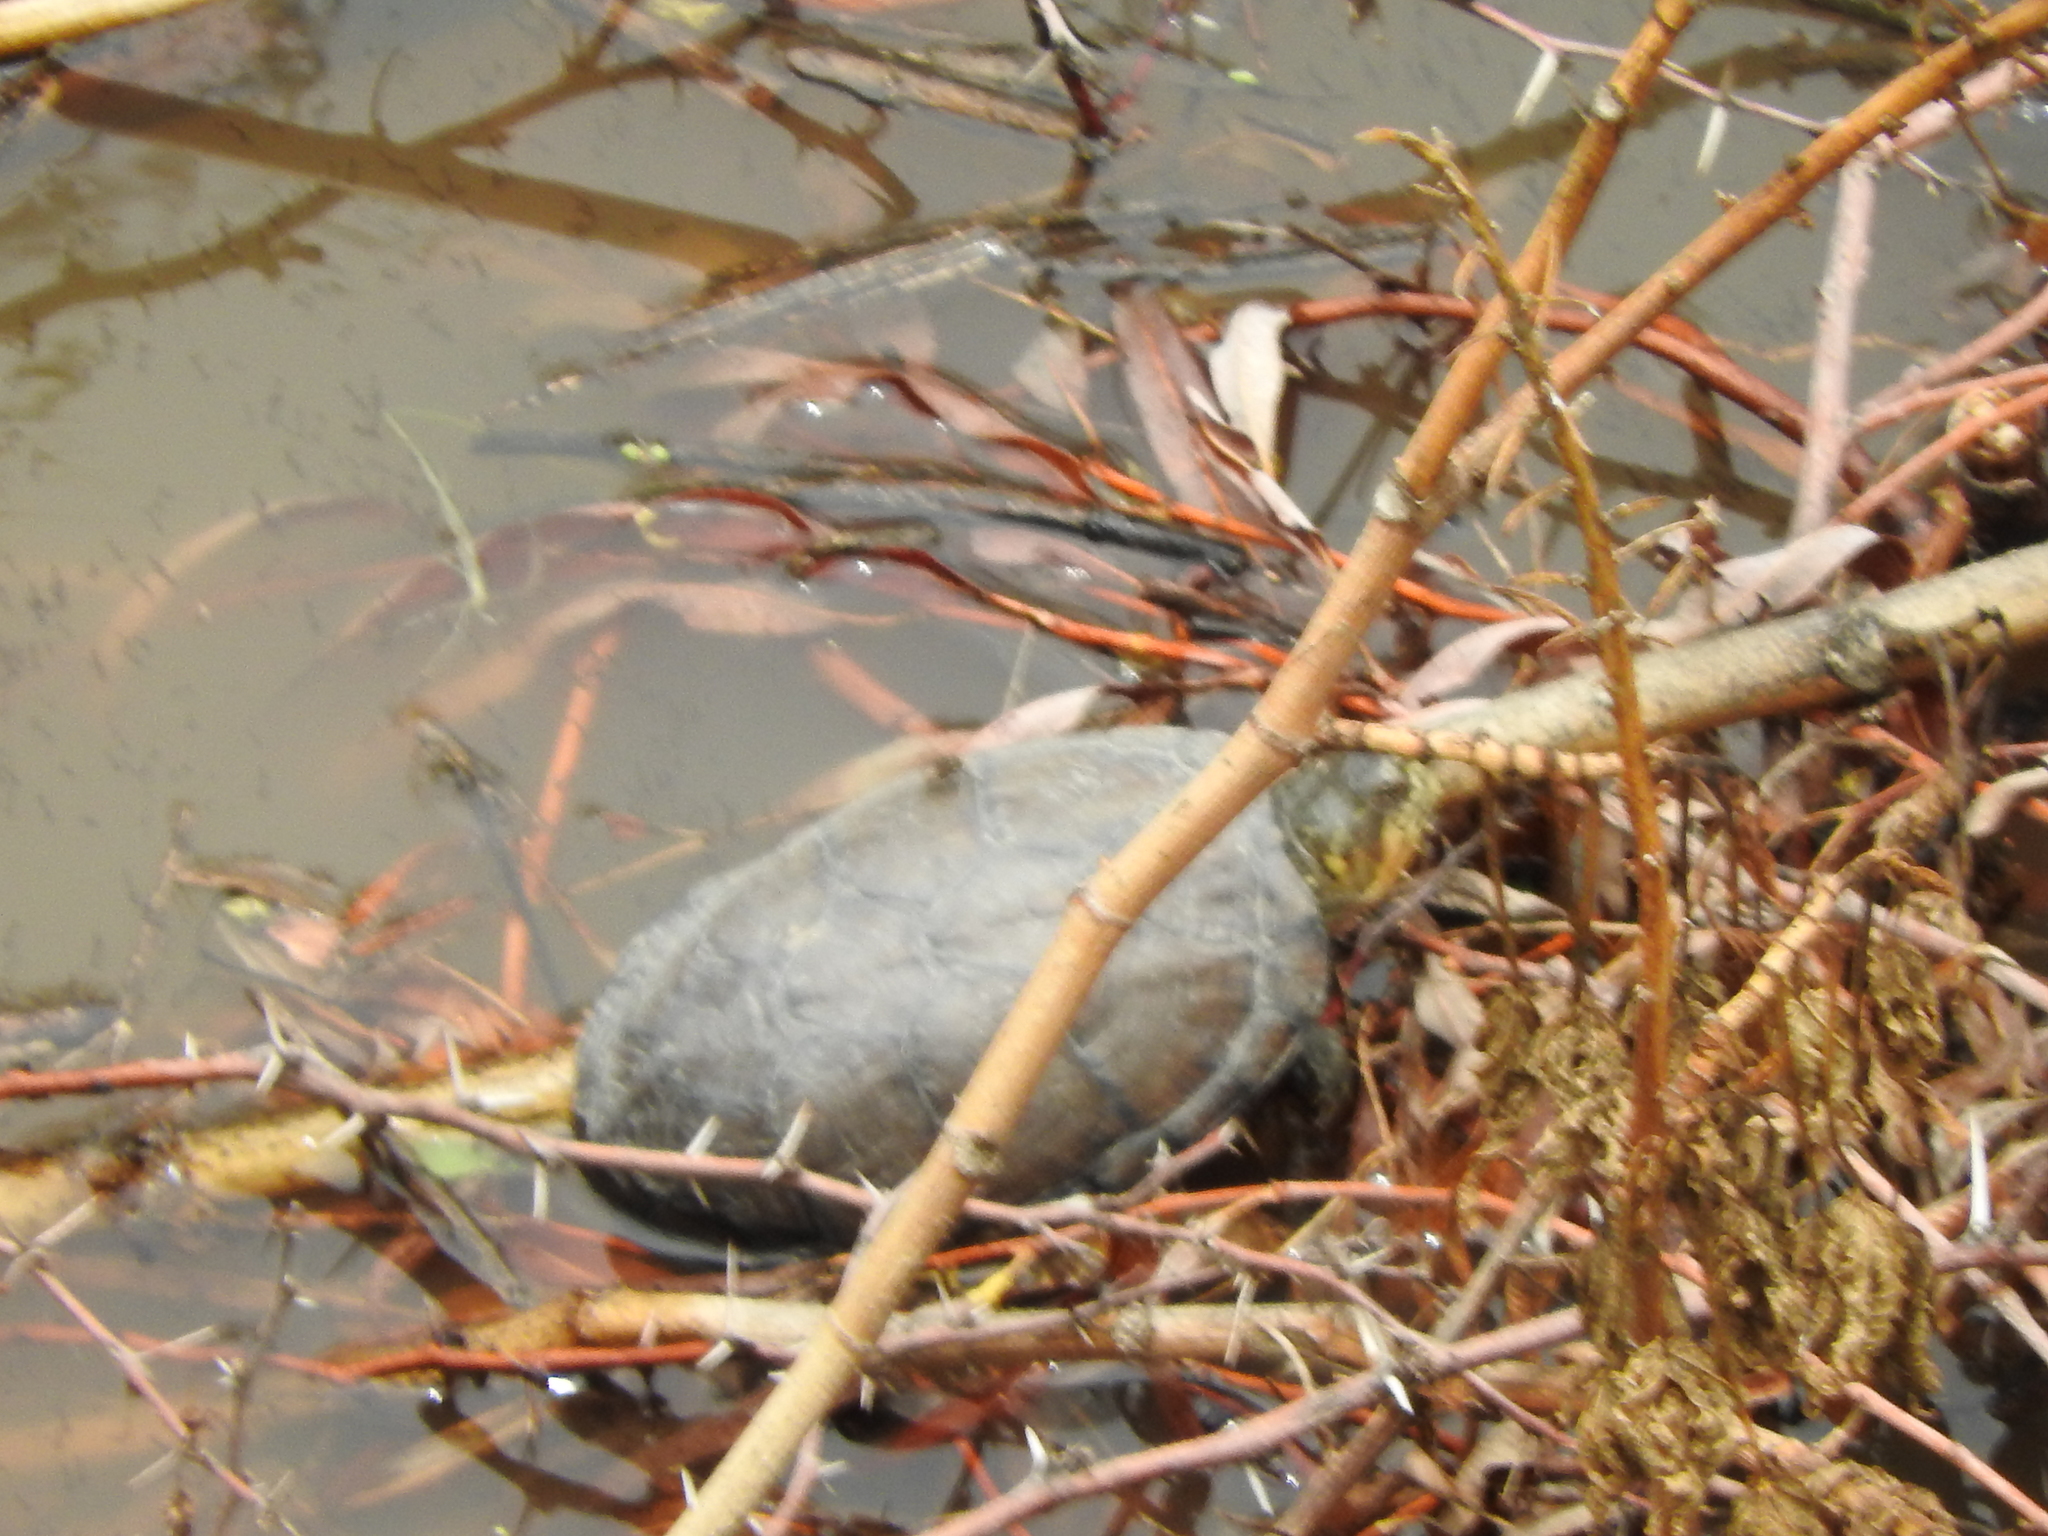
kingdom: Animalia
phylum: Chordata
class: Testudines
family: Kinosternidae
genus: Kinosternon
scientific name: Kinosternon integrum
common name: Mexican mud turtle
